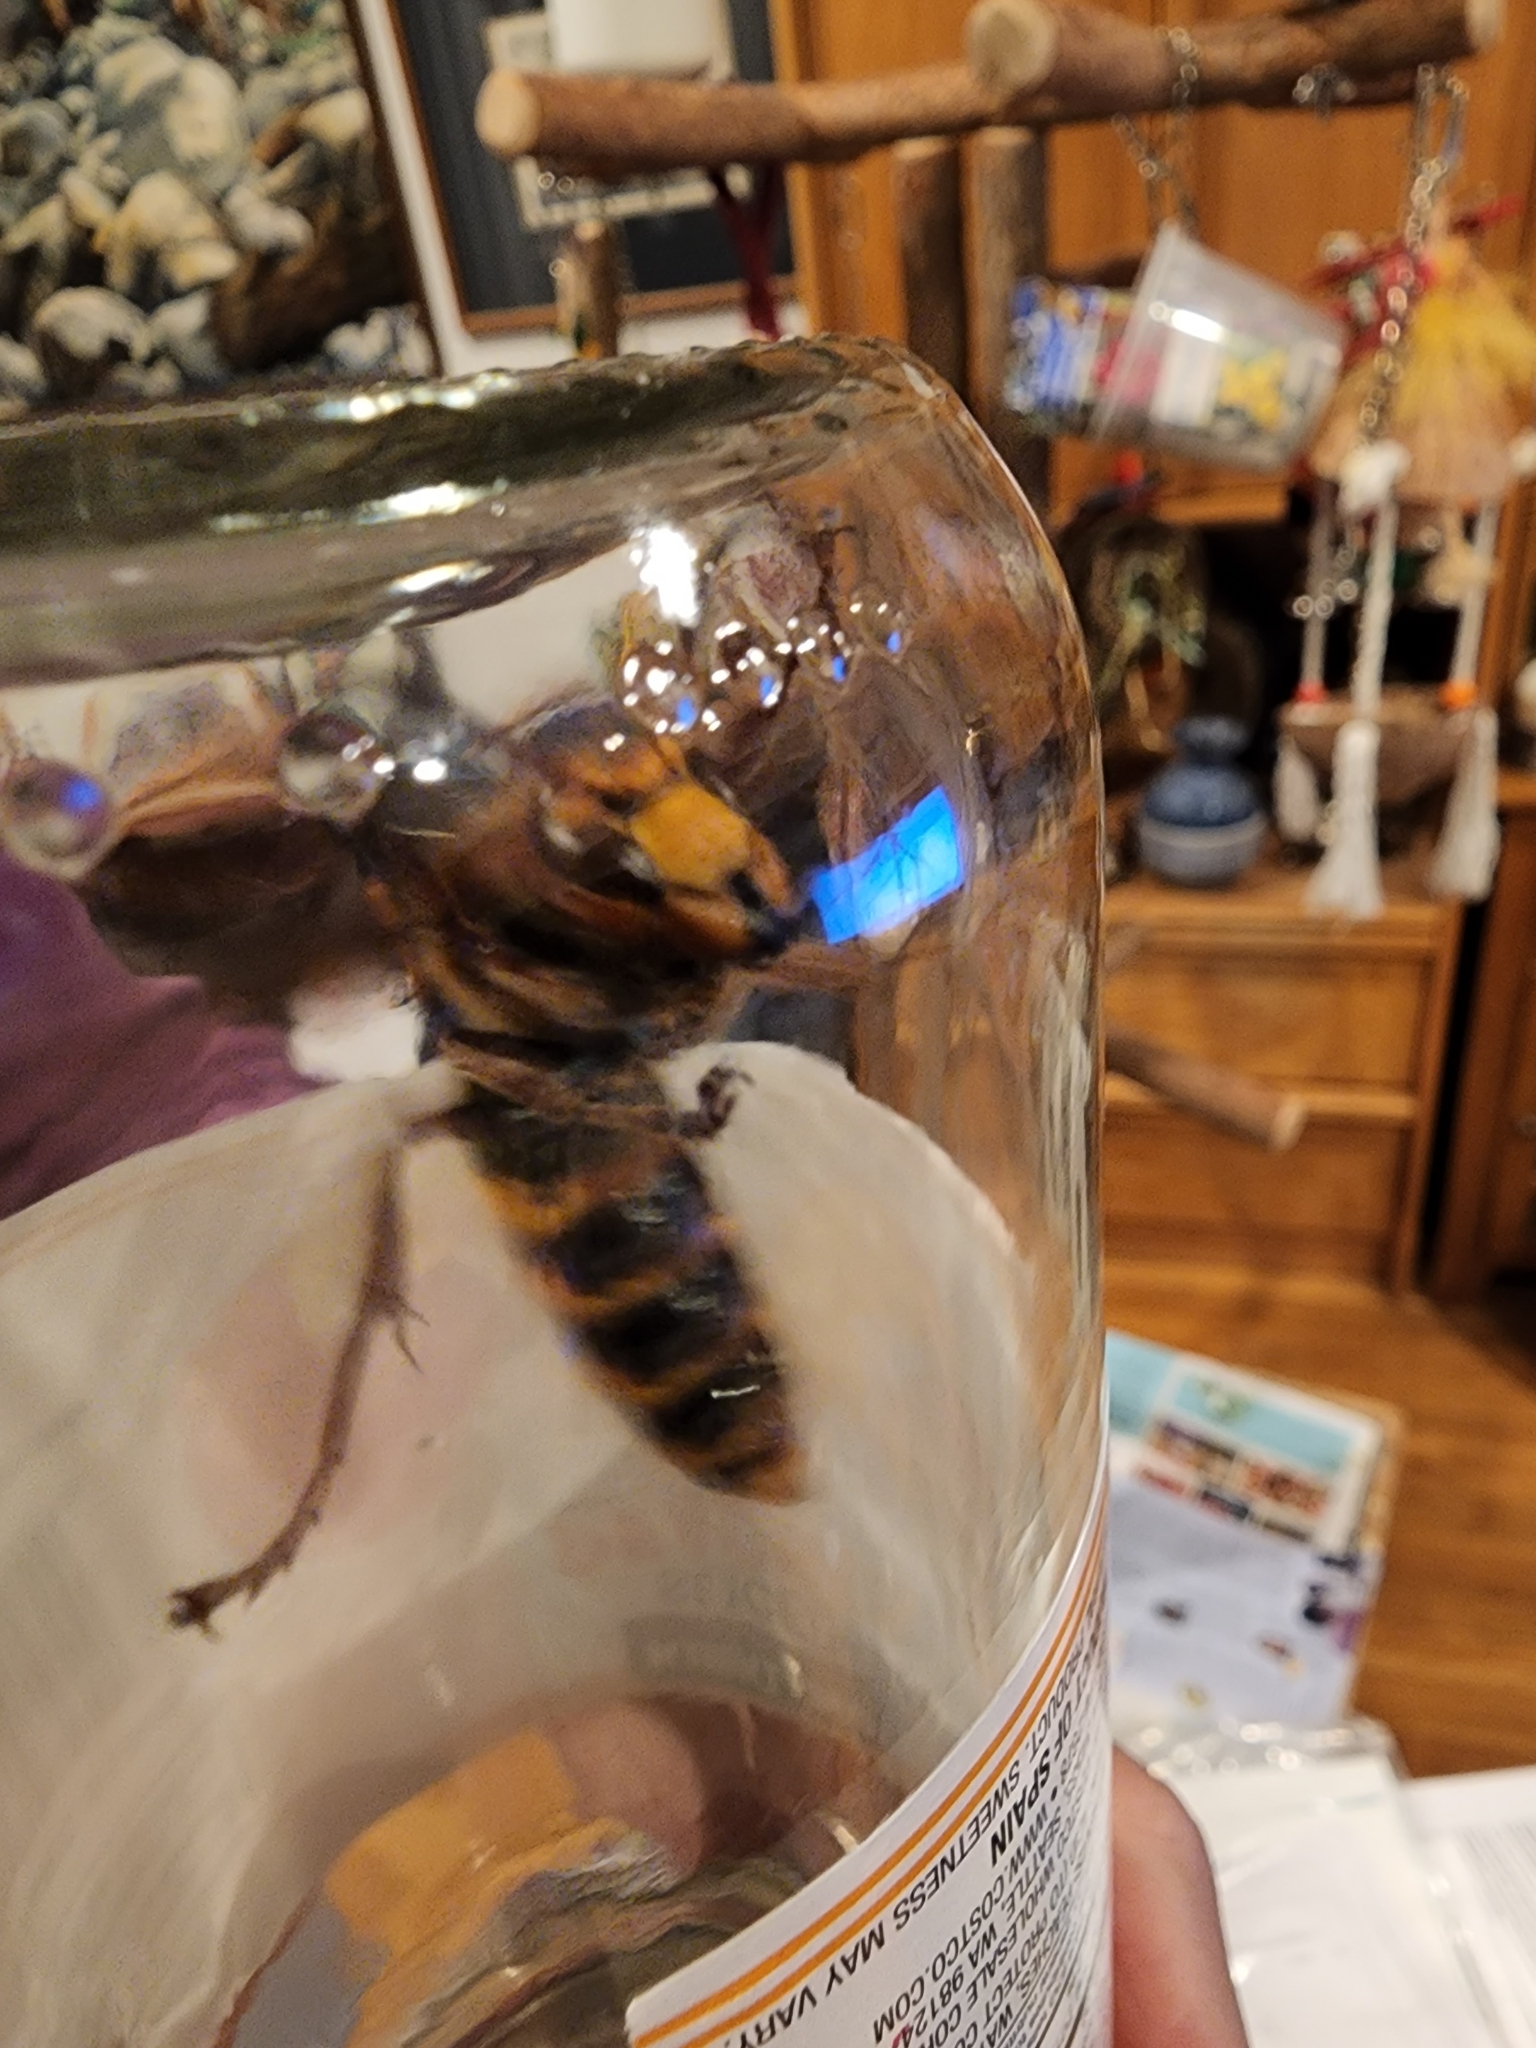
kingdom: Animalia
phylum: Arthropoda
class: Insecta
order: Hymenoptera
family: Vespidae
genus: Vespa
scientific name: Vespa crabro
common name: Hornet
